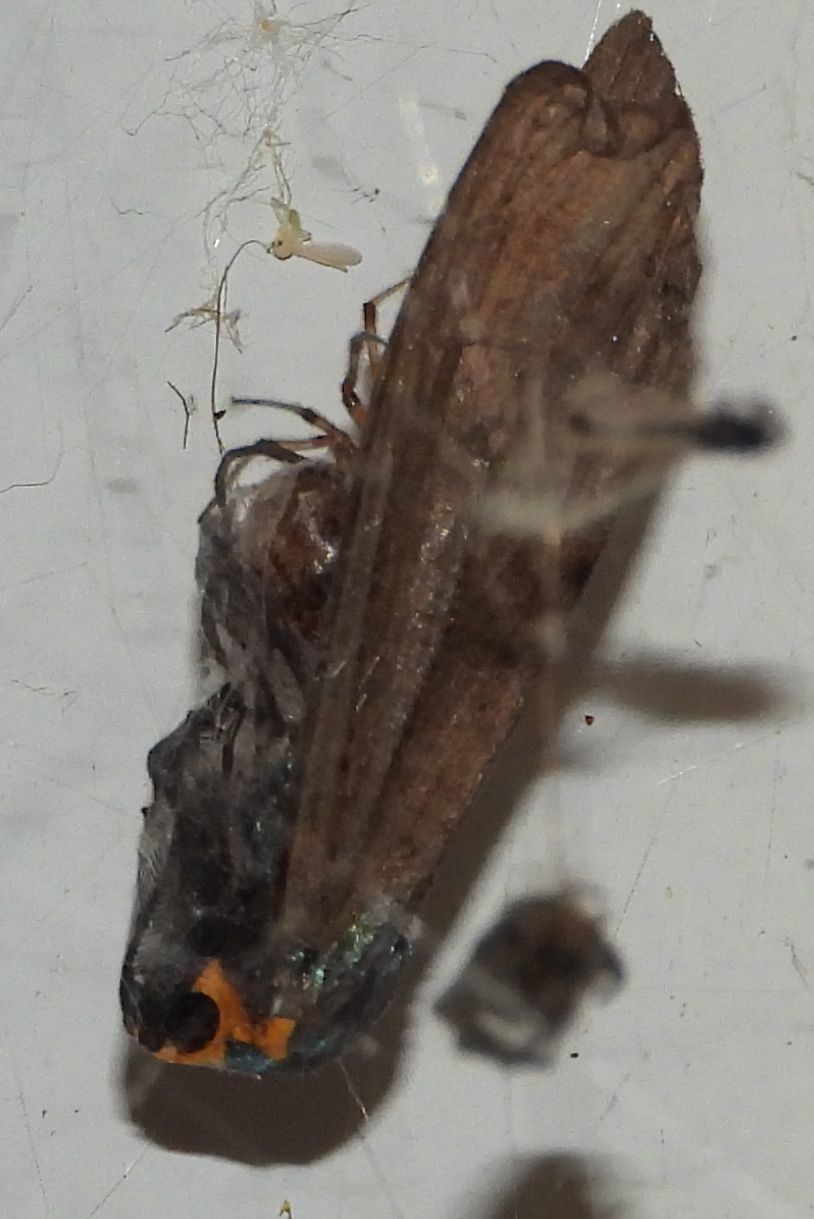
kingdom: Animalia
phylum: Arthropoda
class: Insecta
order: Lepidoptera
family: Erebidae
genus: Ctenucha
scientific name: Ctenucha virginica
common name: Virginia ctenucha moth
